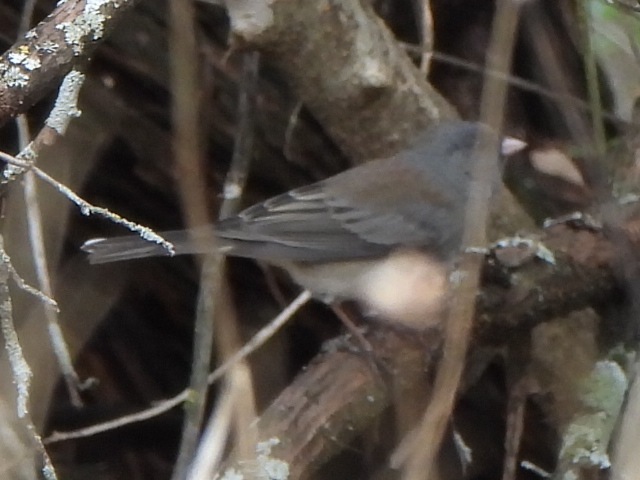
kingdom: Animalia
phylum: Chordata
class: Aves
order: Passeriformes
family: Passerellidae
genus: Junco
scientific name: Junco hyemalis
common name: Dark-eyed junco
